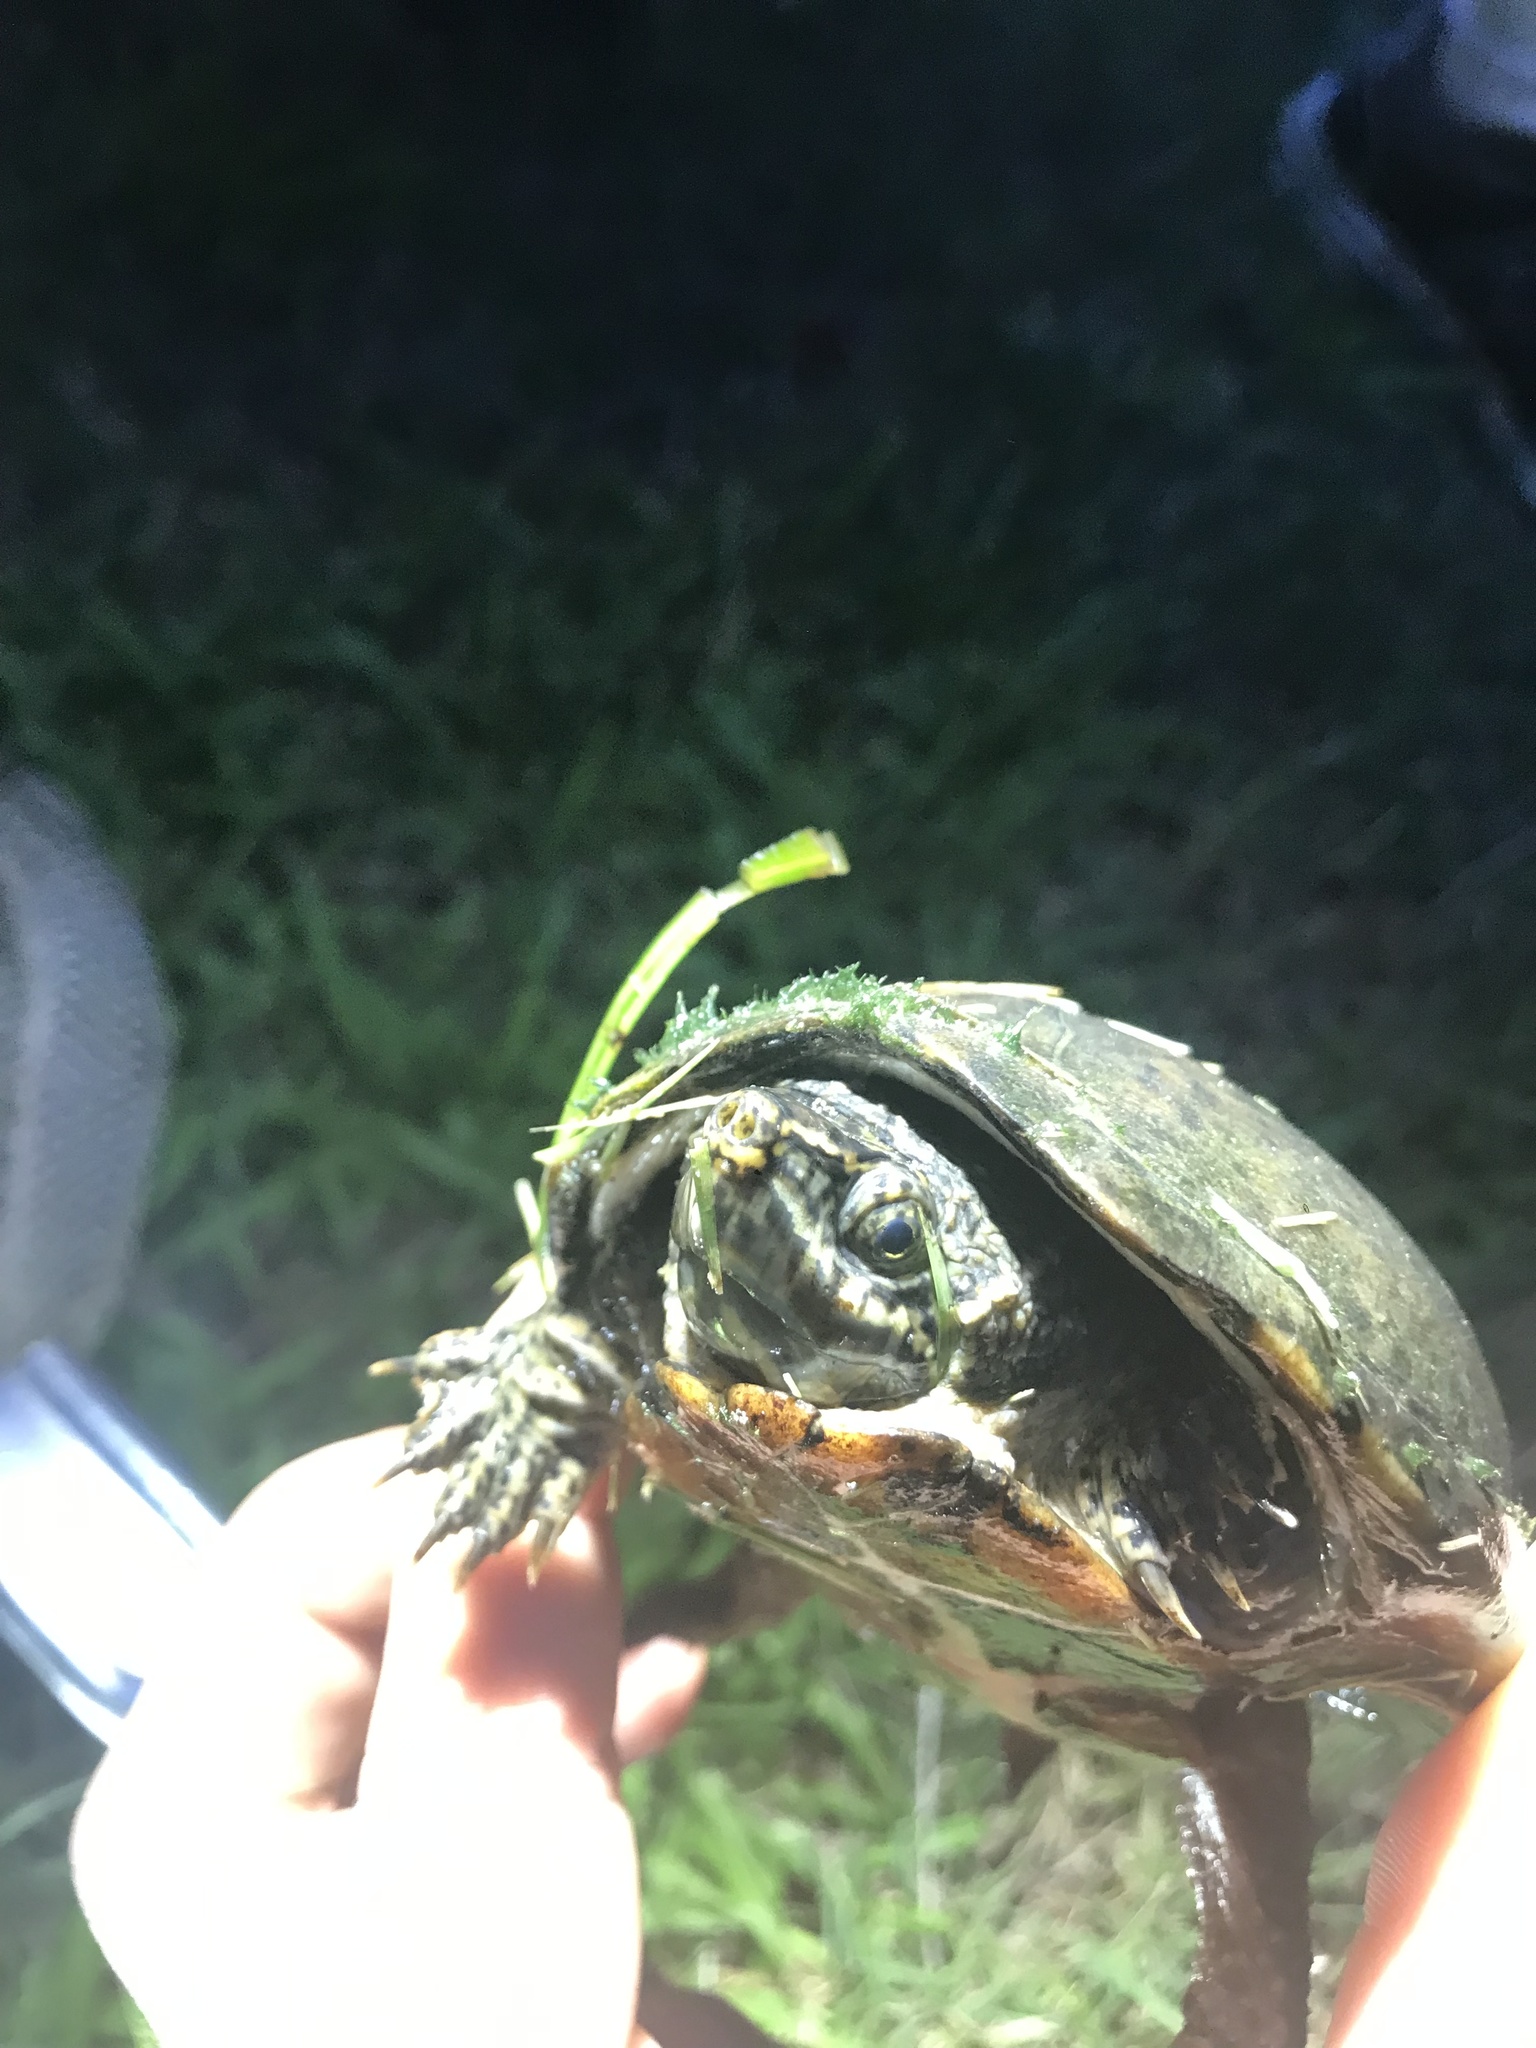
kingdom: Animalia
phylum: Chordata
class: Testudines
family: Kinosternidae
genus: Sternotherus
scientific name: Sternotherus odoratus
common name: Common musk turtle
